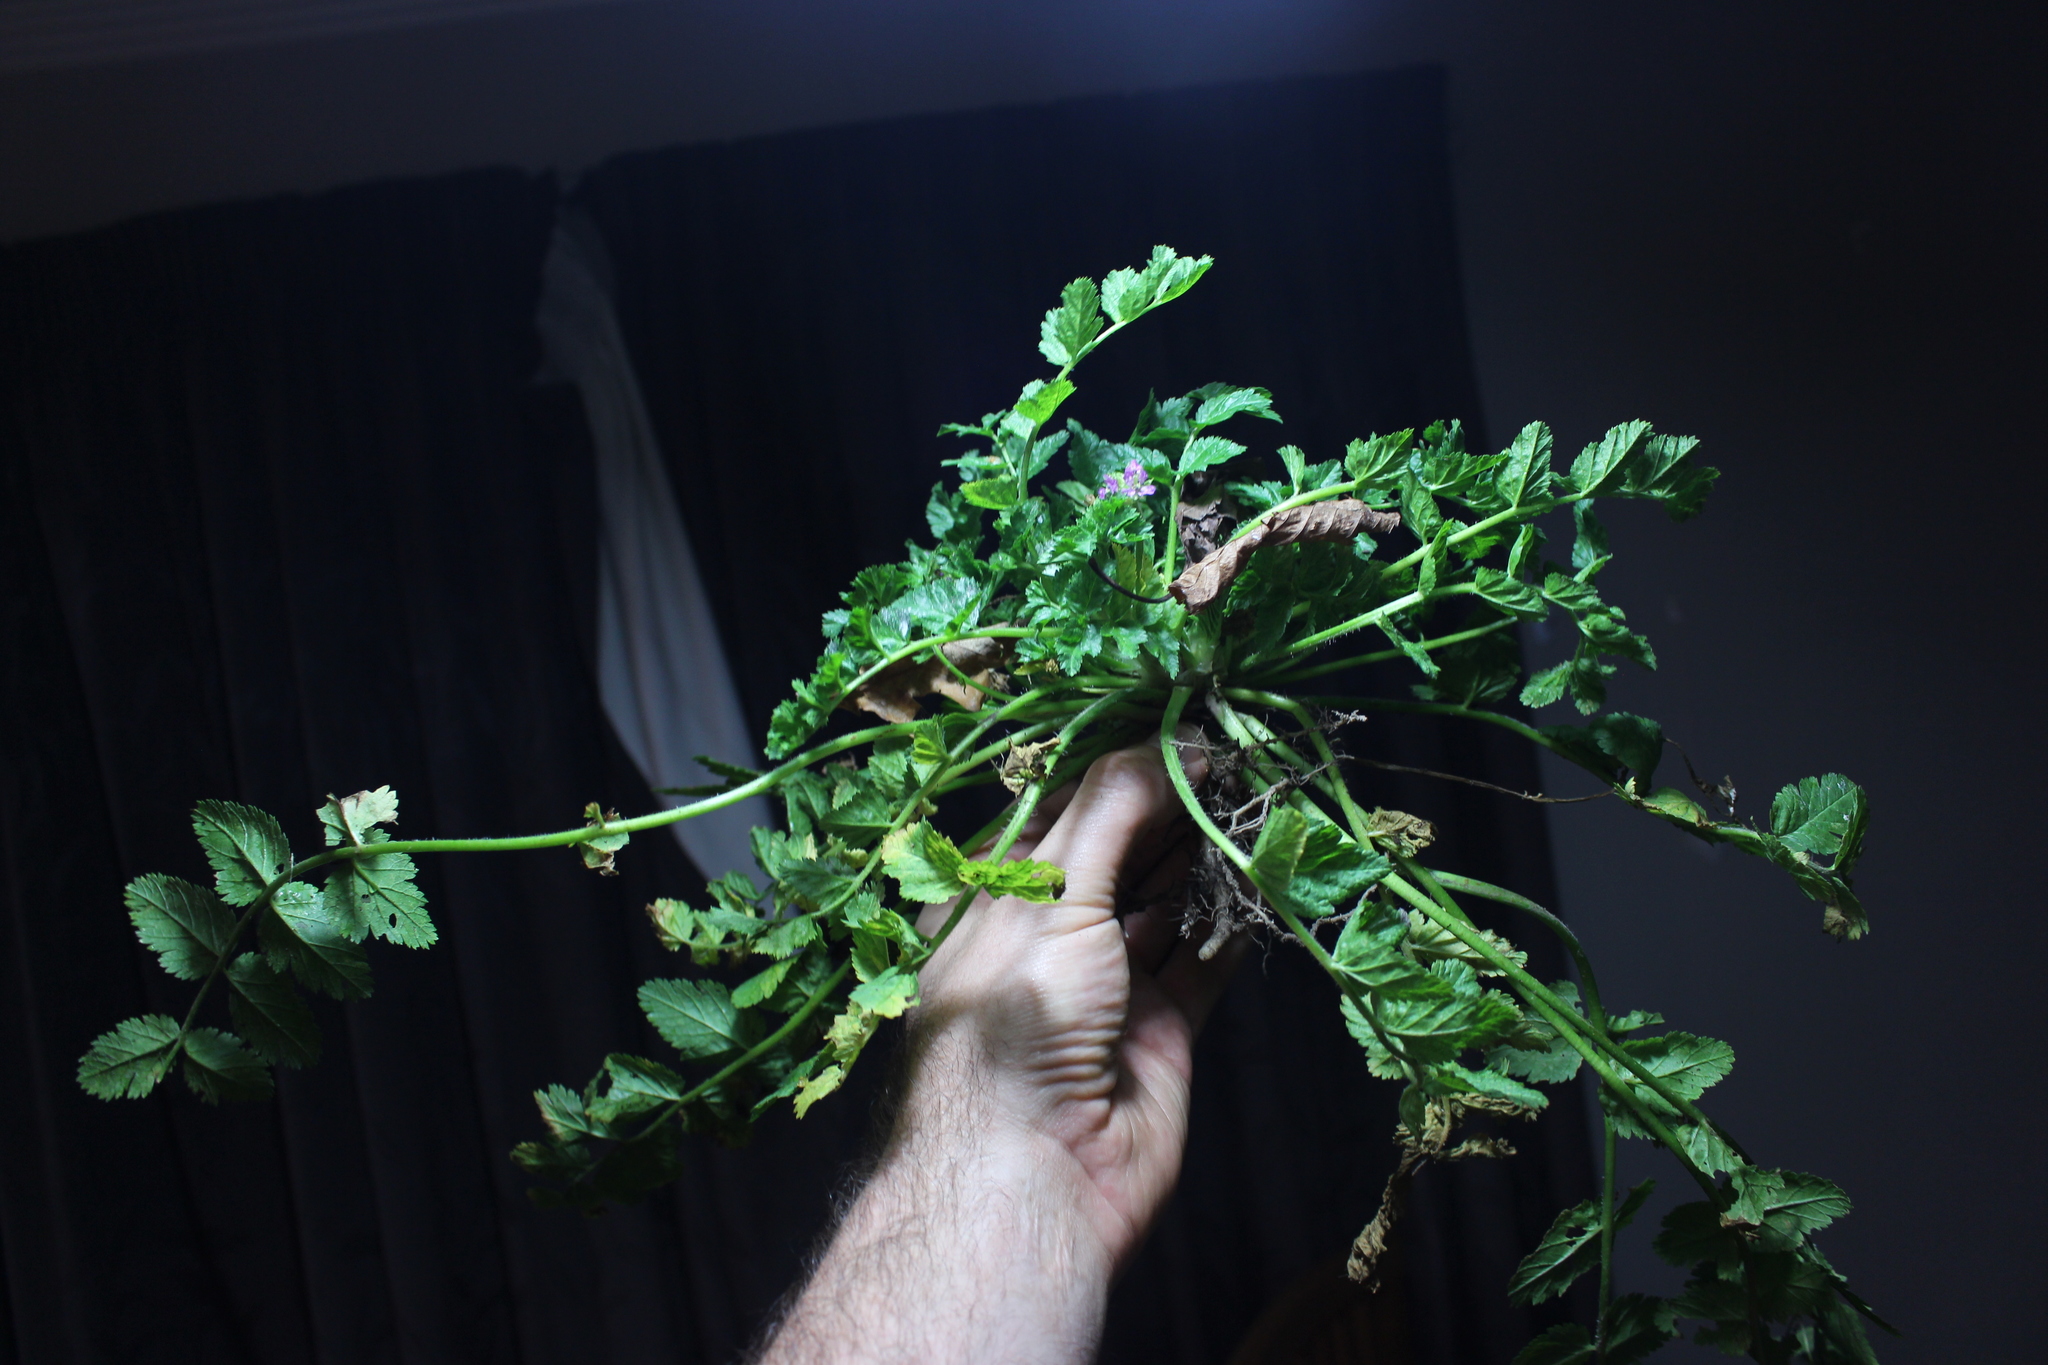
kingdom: Plantae
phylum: Tracheophyta
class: Magnoliopsida
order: Geraniales
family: Geraniaceae
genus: Erodium
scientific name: Erodium moschatum
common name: Musk stork's-bill
